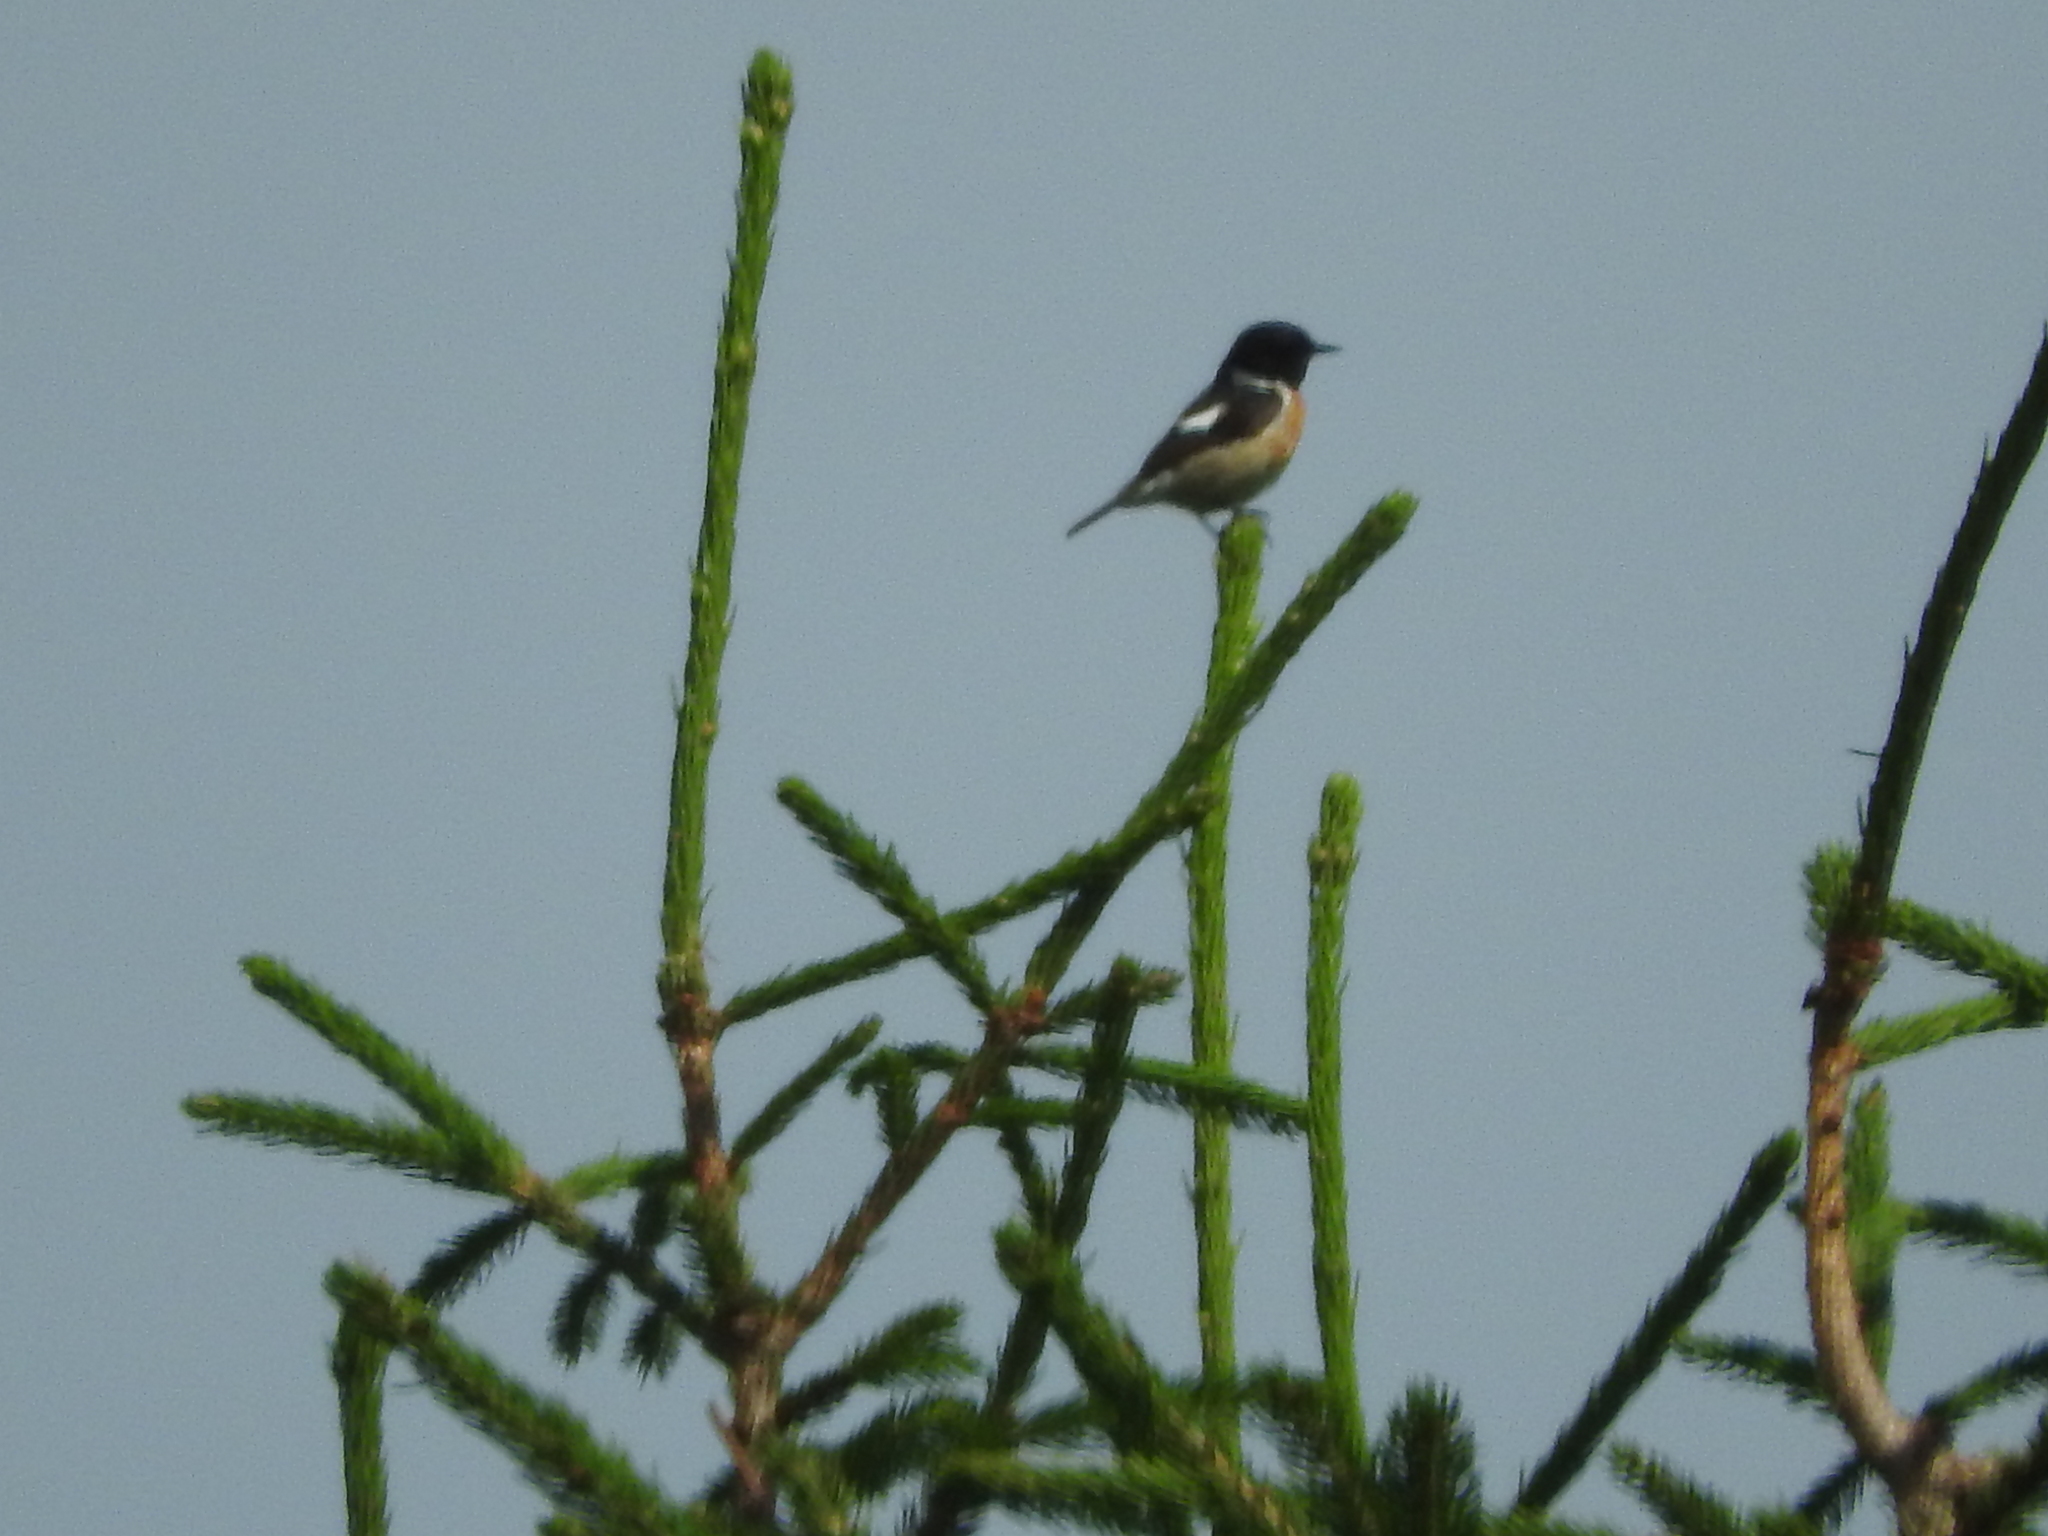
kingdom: Animalia
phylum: Chordata
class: Aves
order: Passeriformes
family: Muscicapidae
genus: Saxicola
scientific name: Saxicola rubicola
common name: European stonechat
